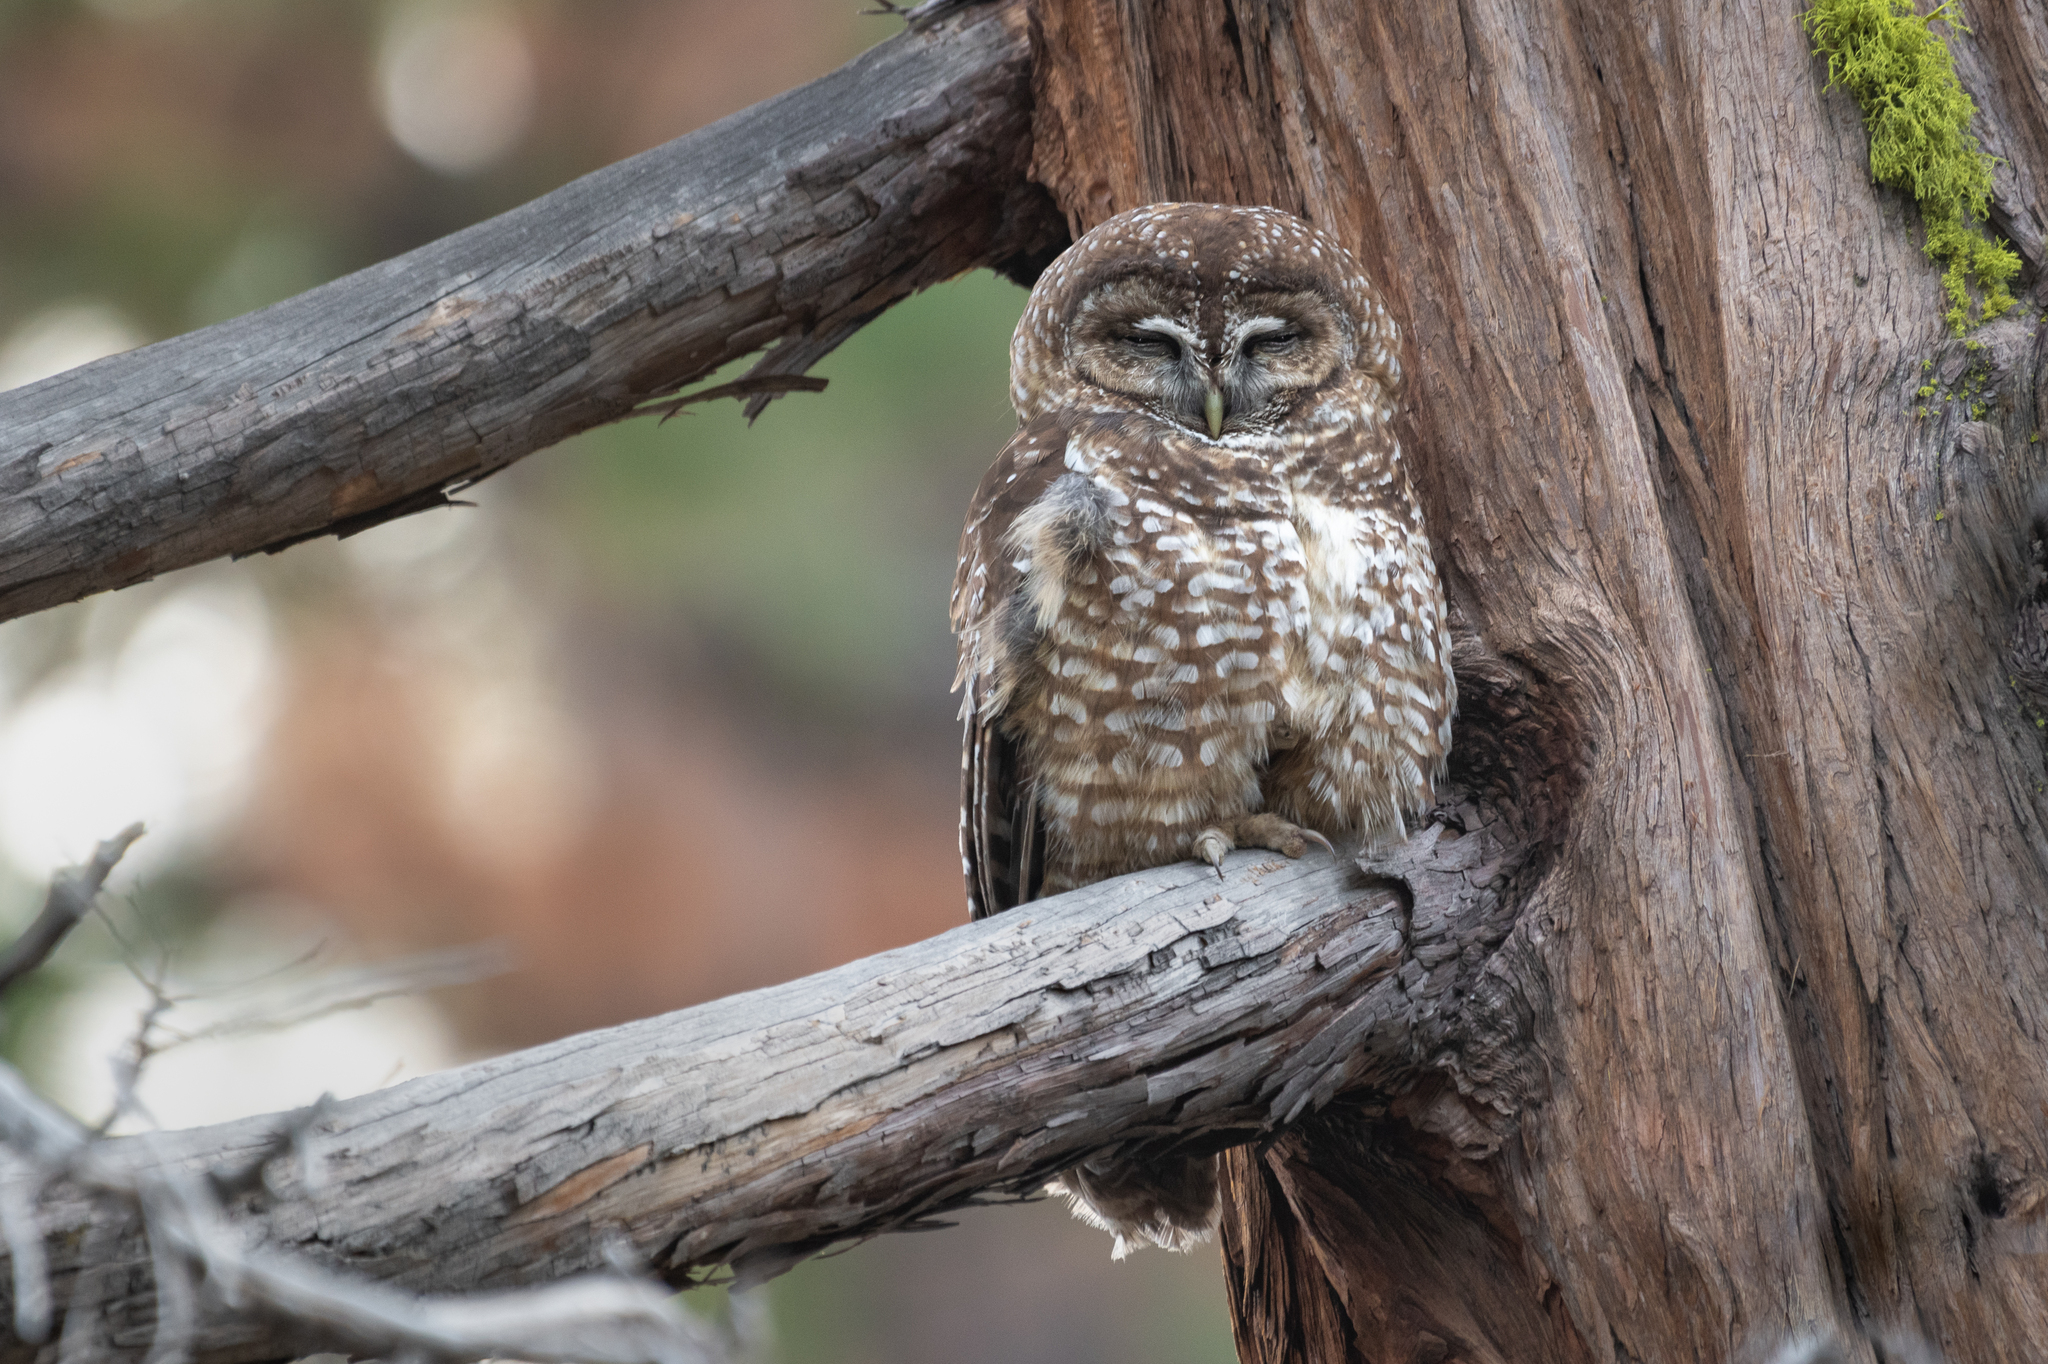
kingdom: Animalia
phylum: Chordata
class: Aves
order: Strigiformes
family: Strigidae
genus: Strix
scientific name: Strix occidentalis
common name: Spotted owl
